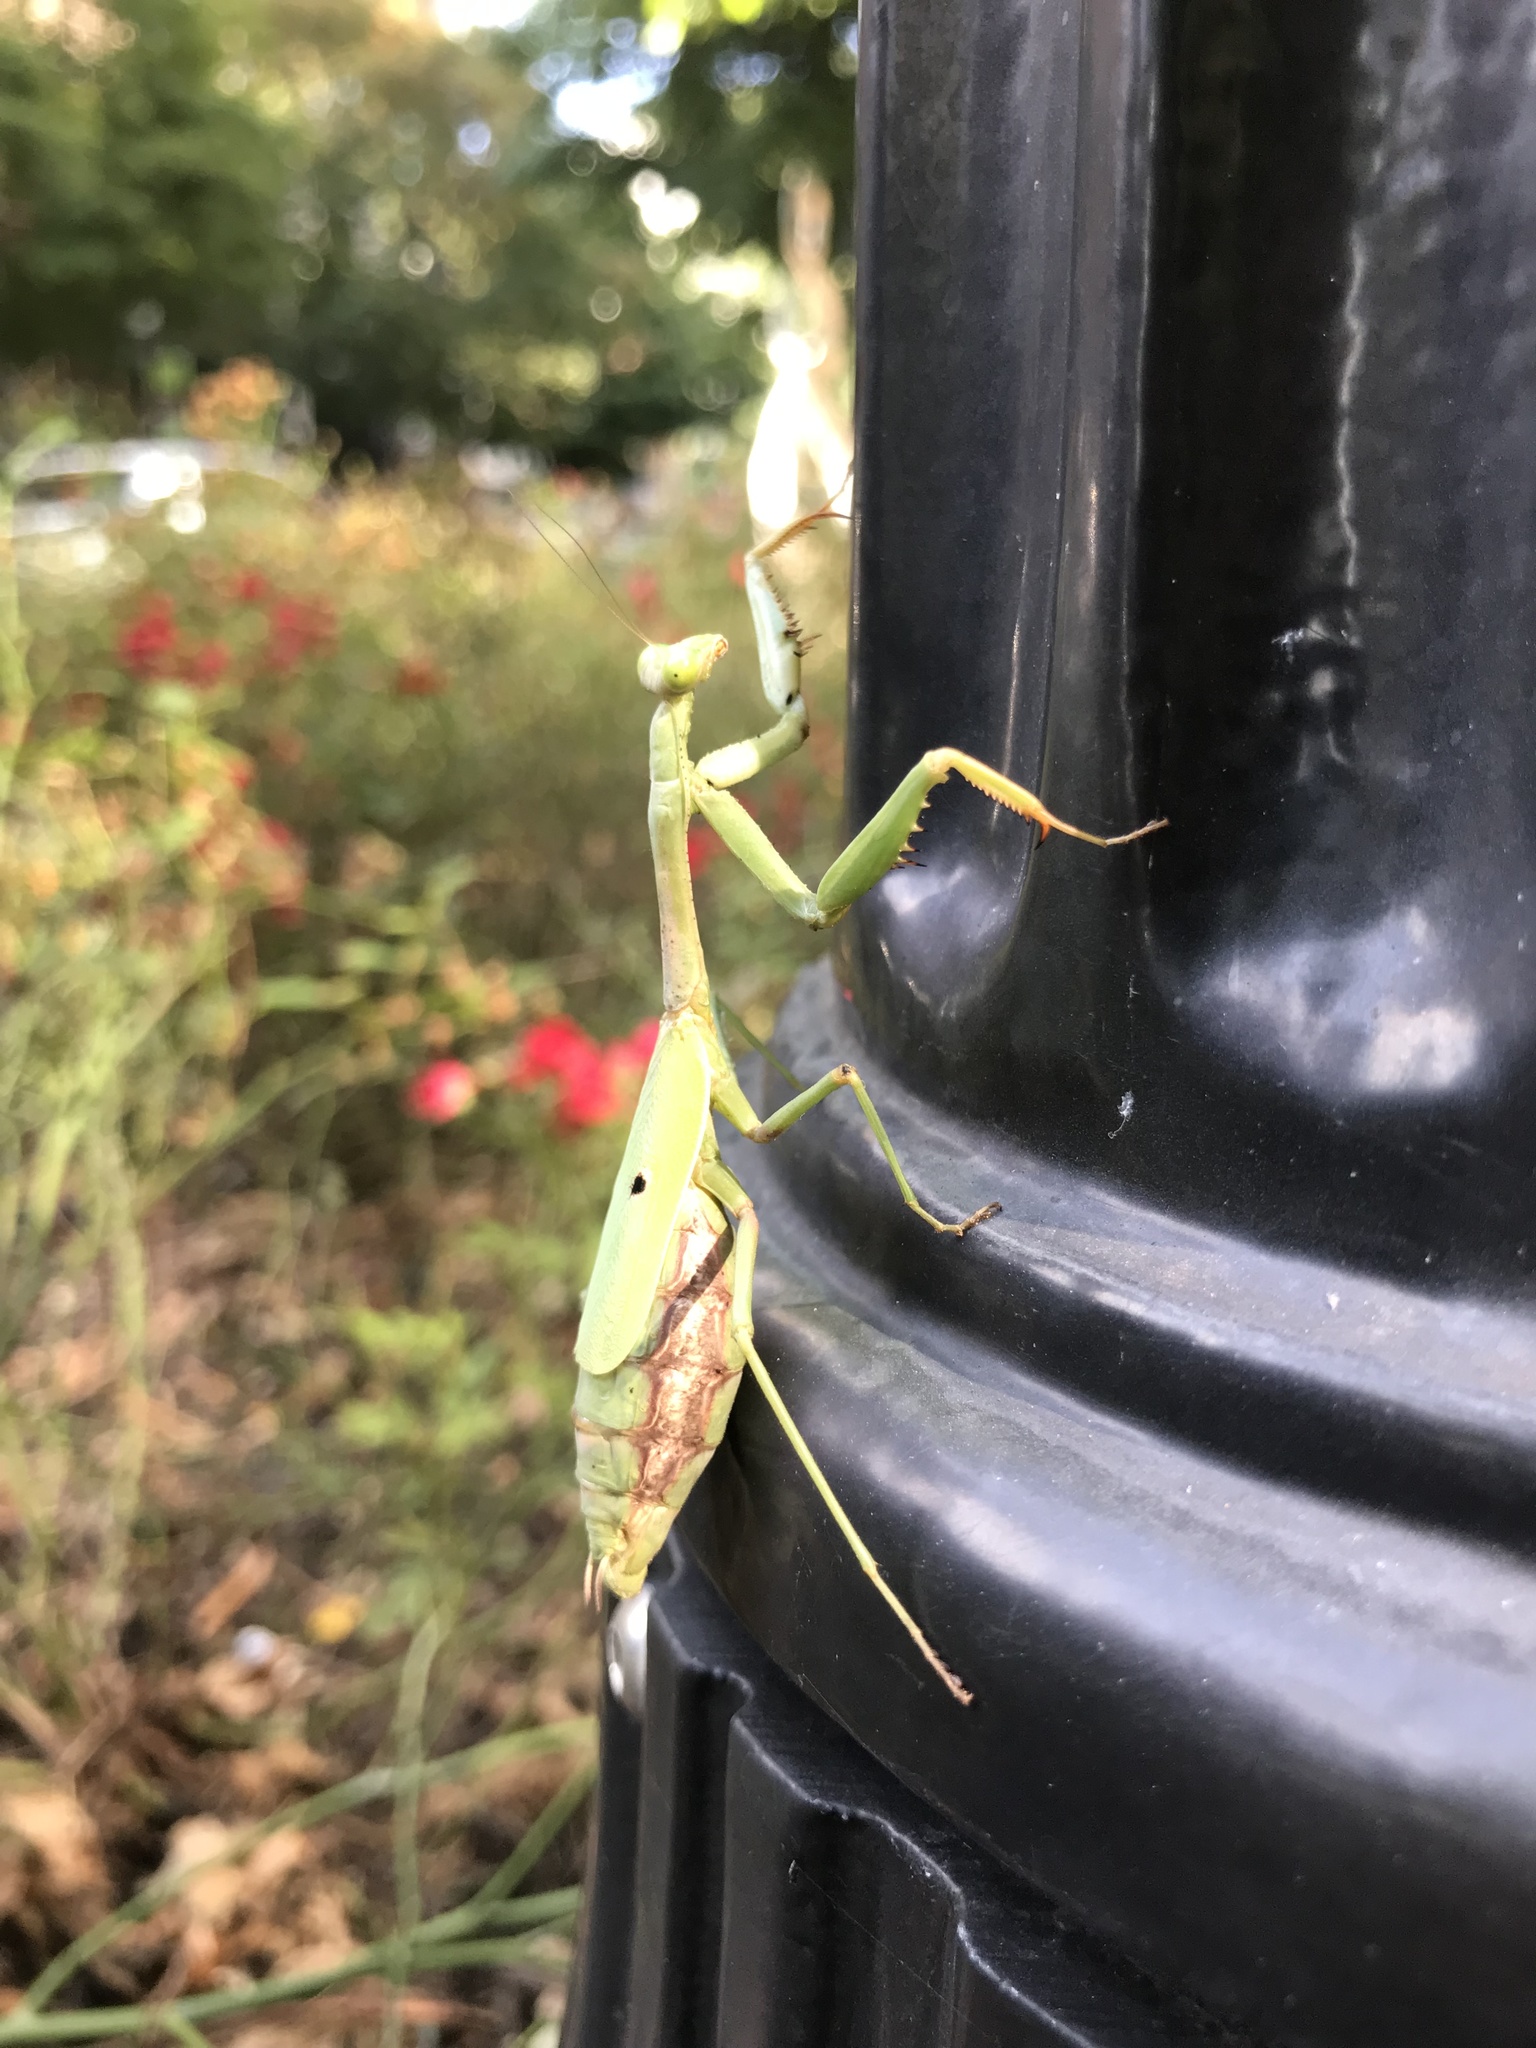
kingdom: Animalia
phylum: Arthropoda
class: Insecta
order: Mantodea
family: Mantidae
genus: Stagmomantis
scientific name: Stagmomantis carolina
